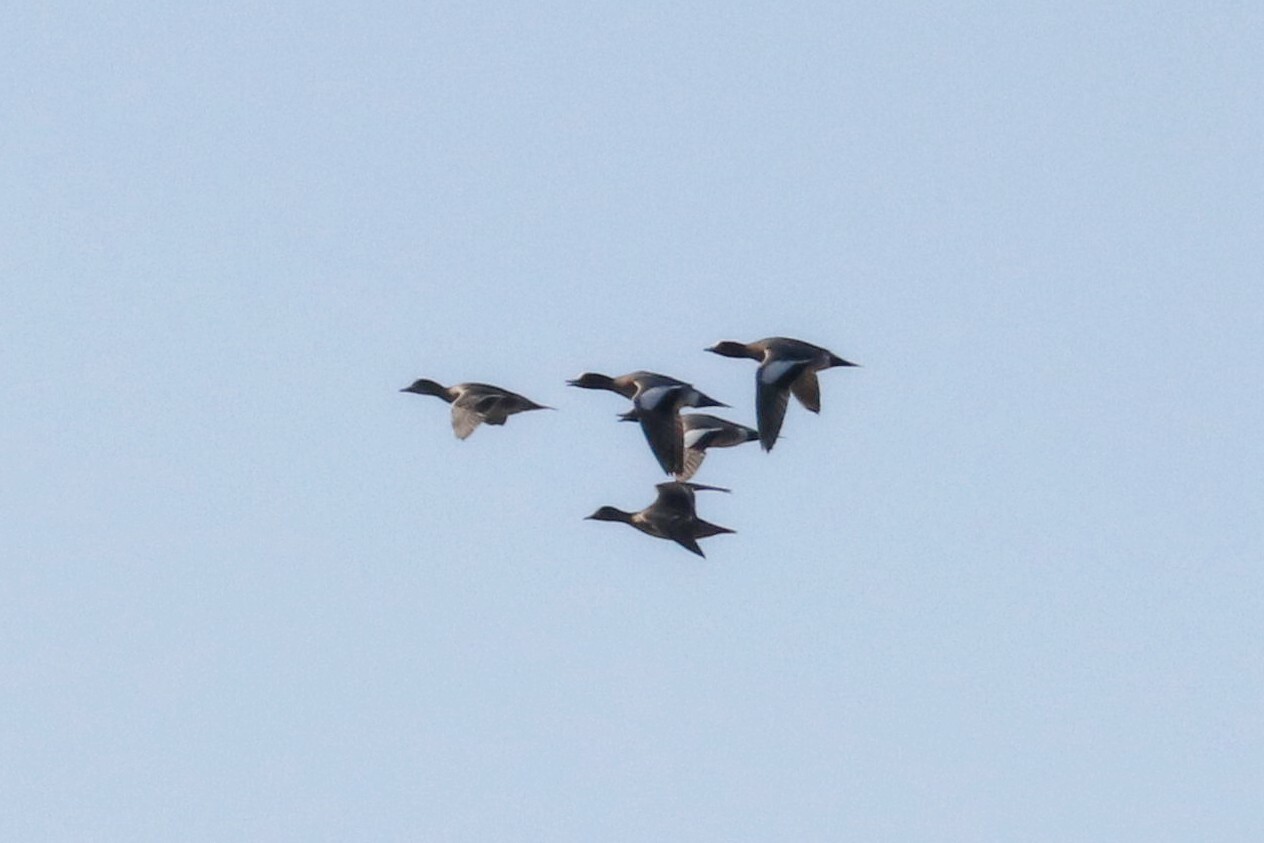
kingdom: Animalia
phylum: Chordata
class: Aves
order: Anseriformes
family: Anatidae
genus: Mareca
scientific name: Mareca penelope
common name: Eurasian wigeon
